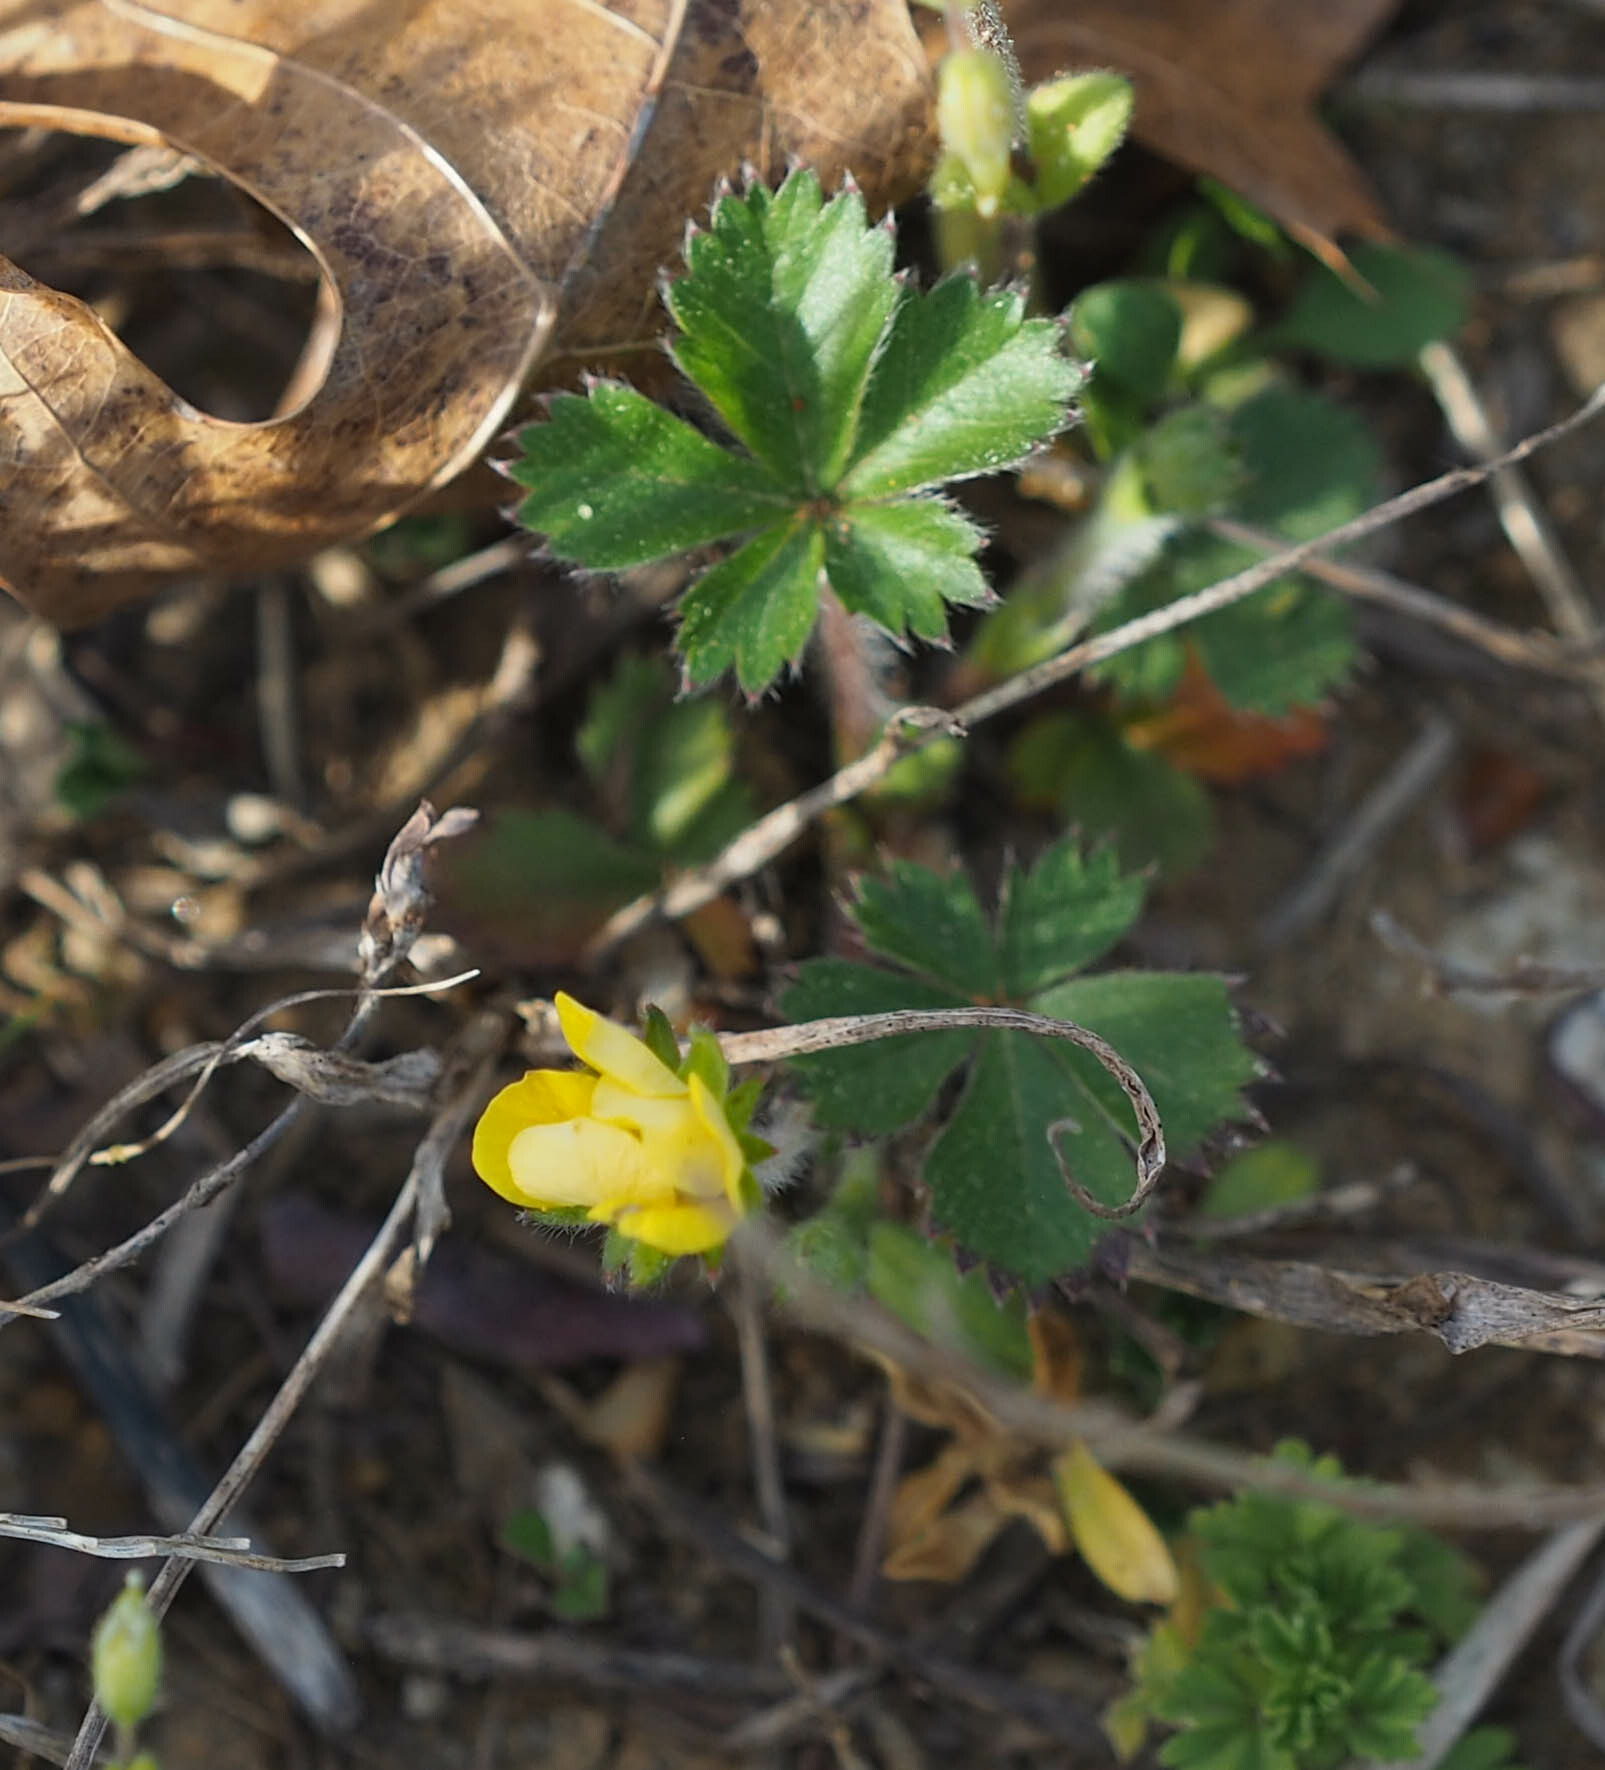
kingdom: Plantae
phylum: Tracheophyta
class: Magnoliopsida
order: Rosales
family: Rosaceae
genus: Potentilla
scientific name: Potentilla canadensis
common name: Canada cinquefoil
